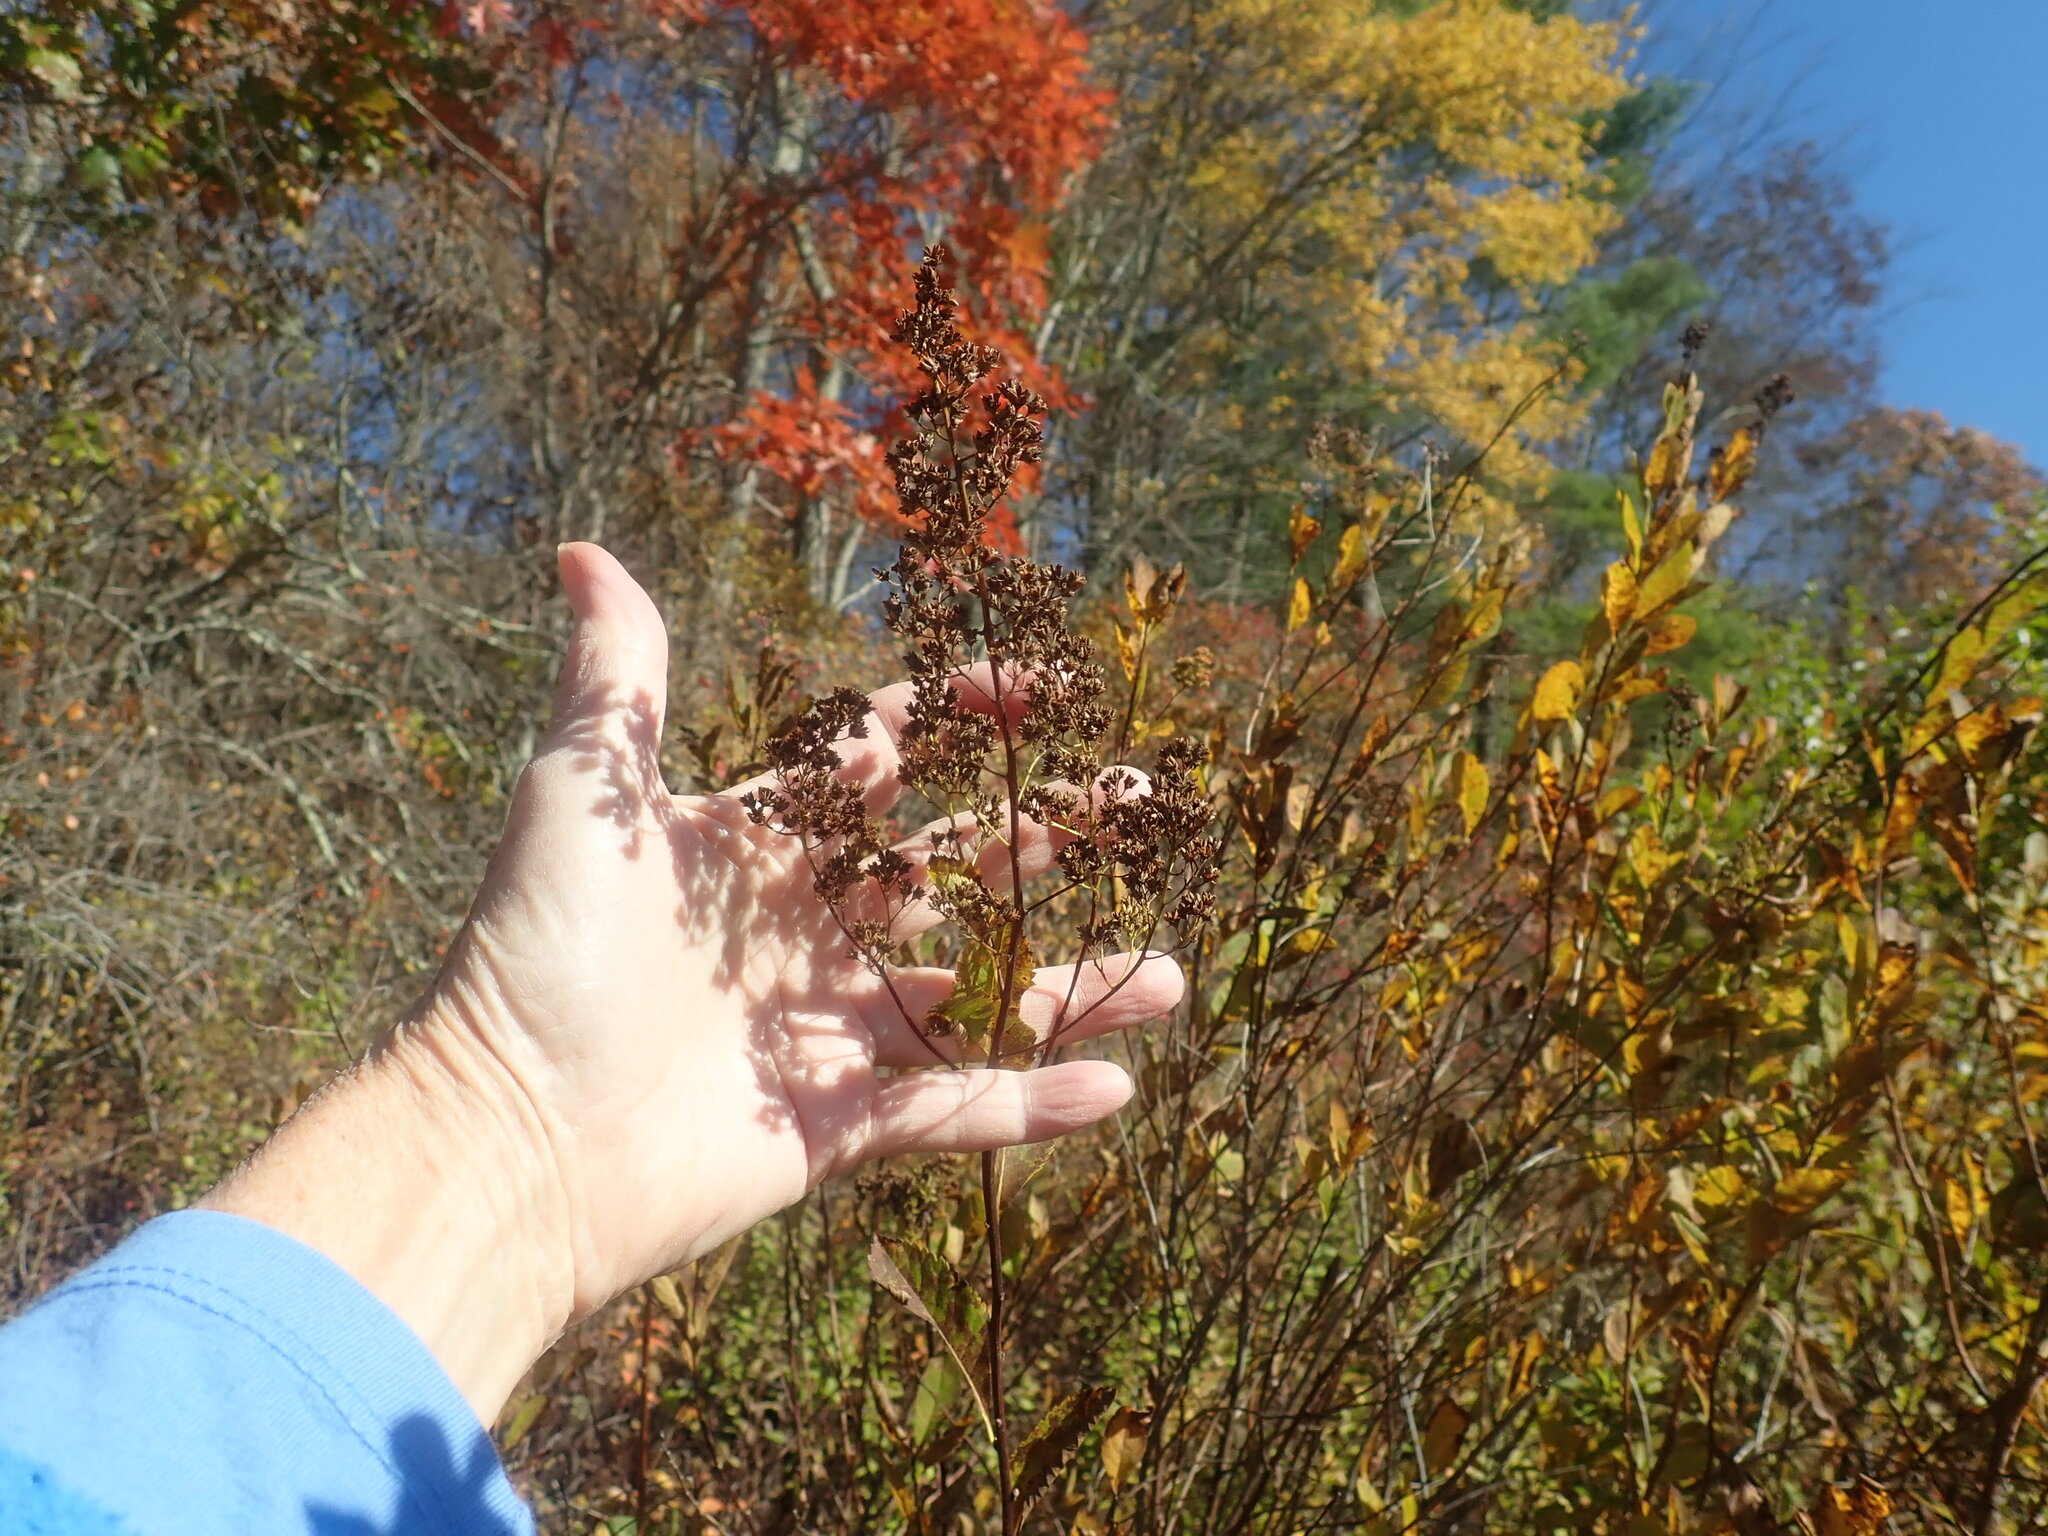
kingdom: Plantae
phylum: Tracheophyta
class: Magnoliopsida
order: Rosales
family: Rosaceae
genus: Spiraea
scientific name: Spiraea alba
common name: Pale bridewort
